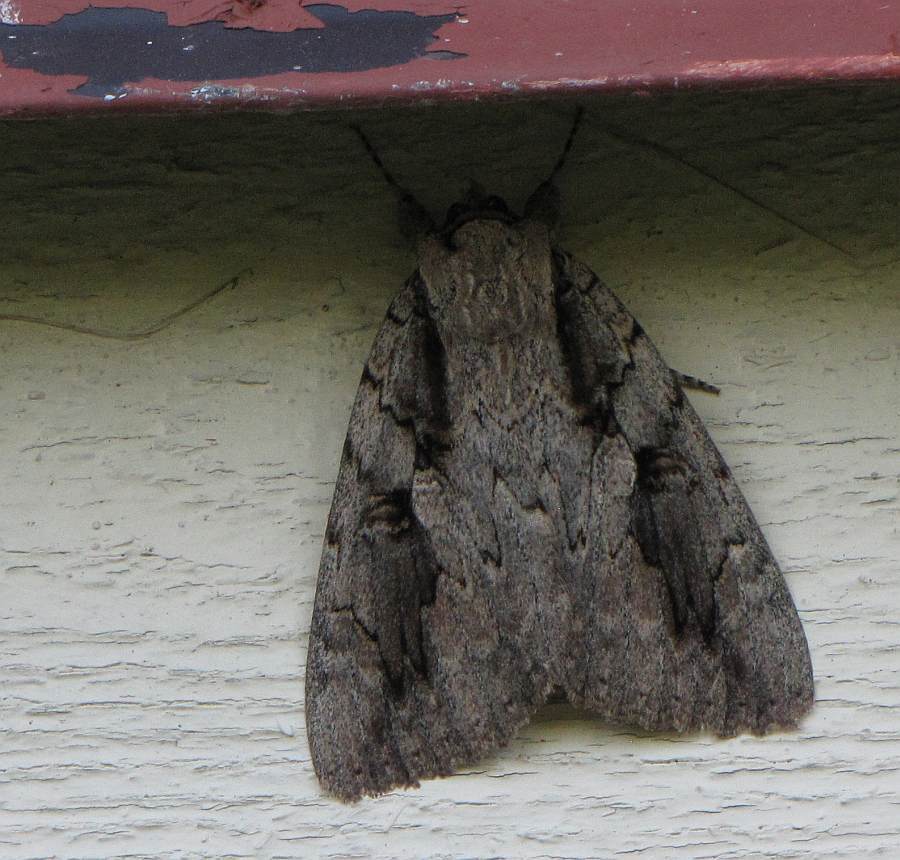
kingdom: Animalia
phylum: Arthropoda
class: Insecta
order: Lepidoptera
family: Erebidae
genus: Catocala
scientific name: Catocala amatrix
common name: Sweetheart underwing
